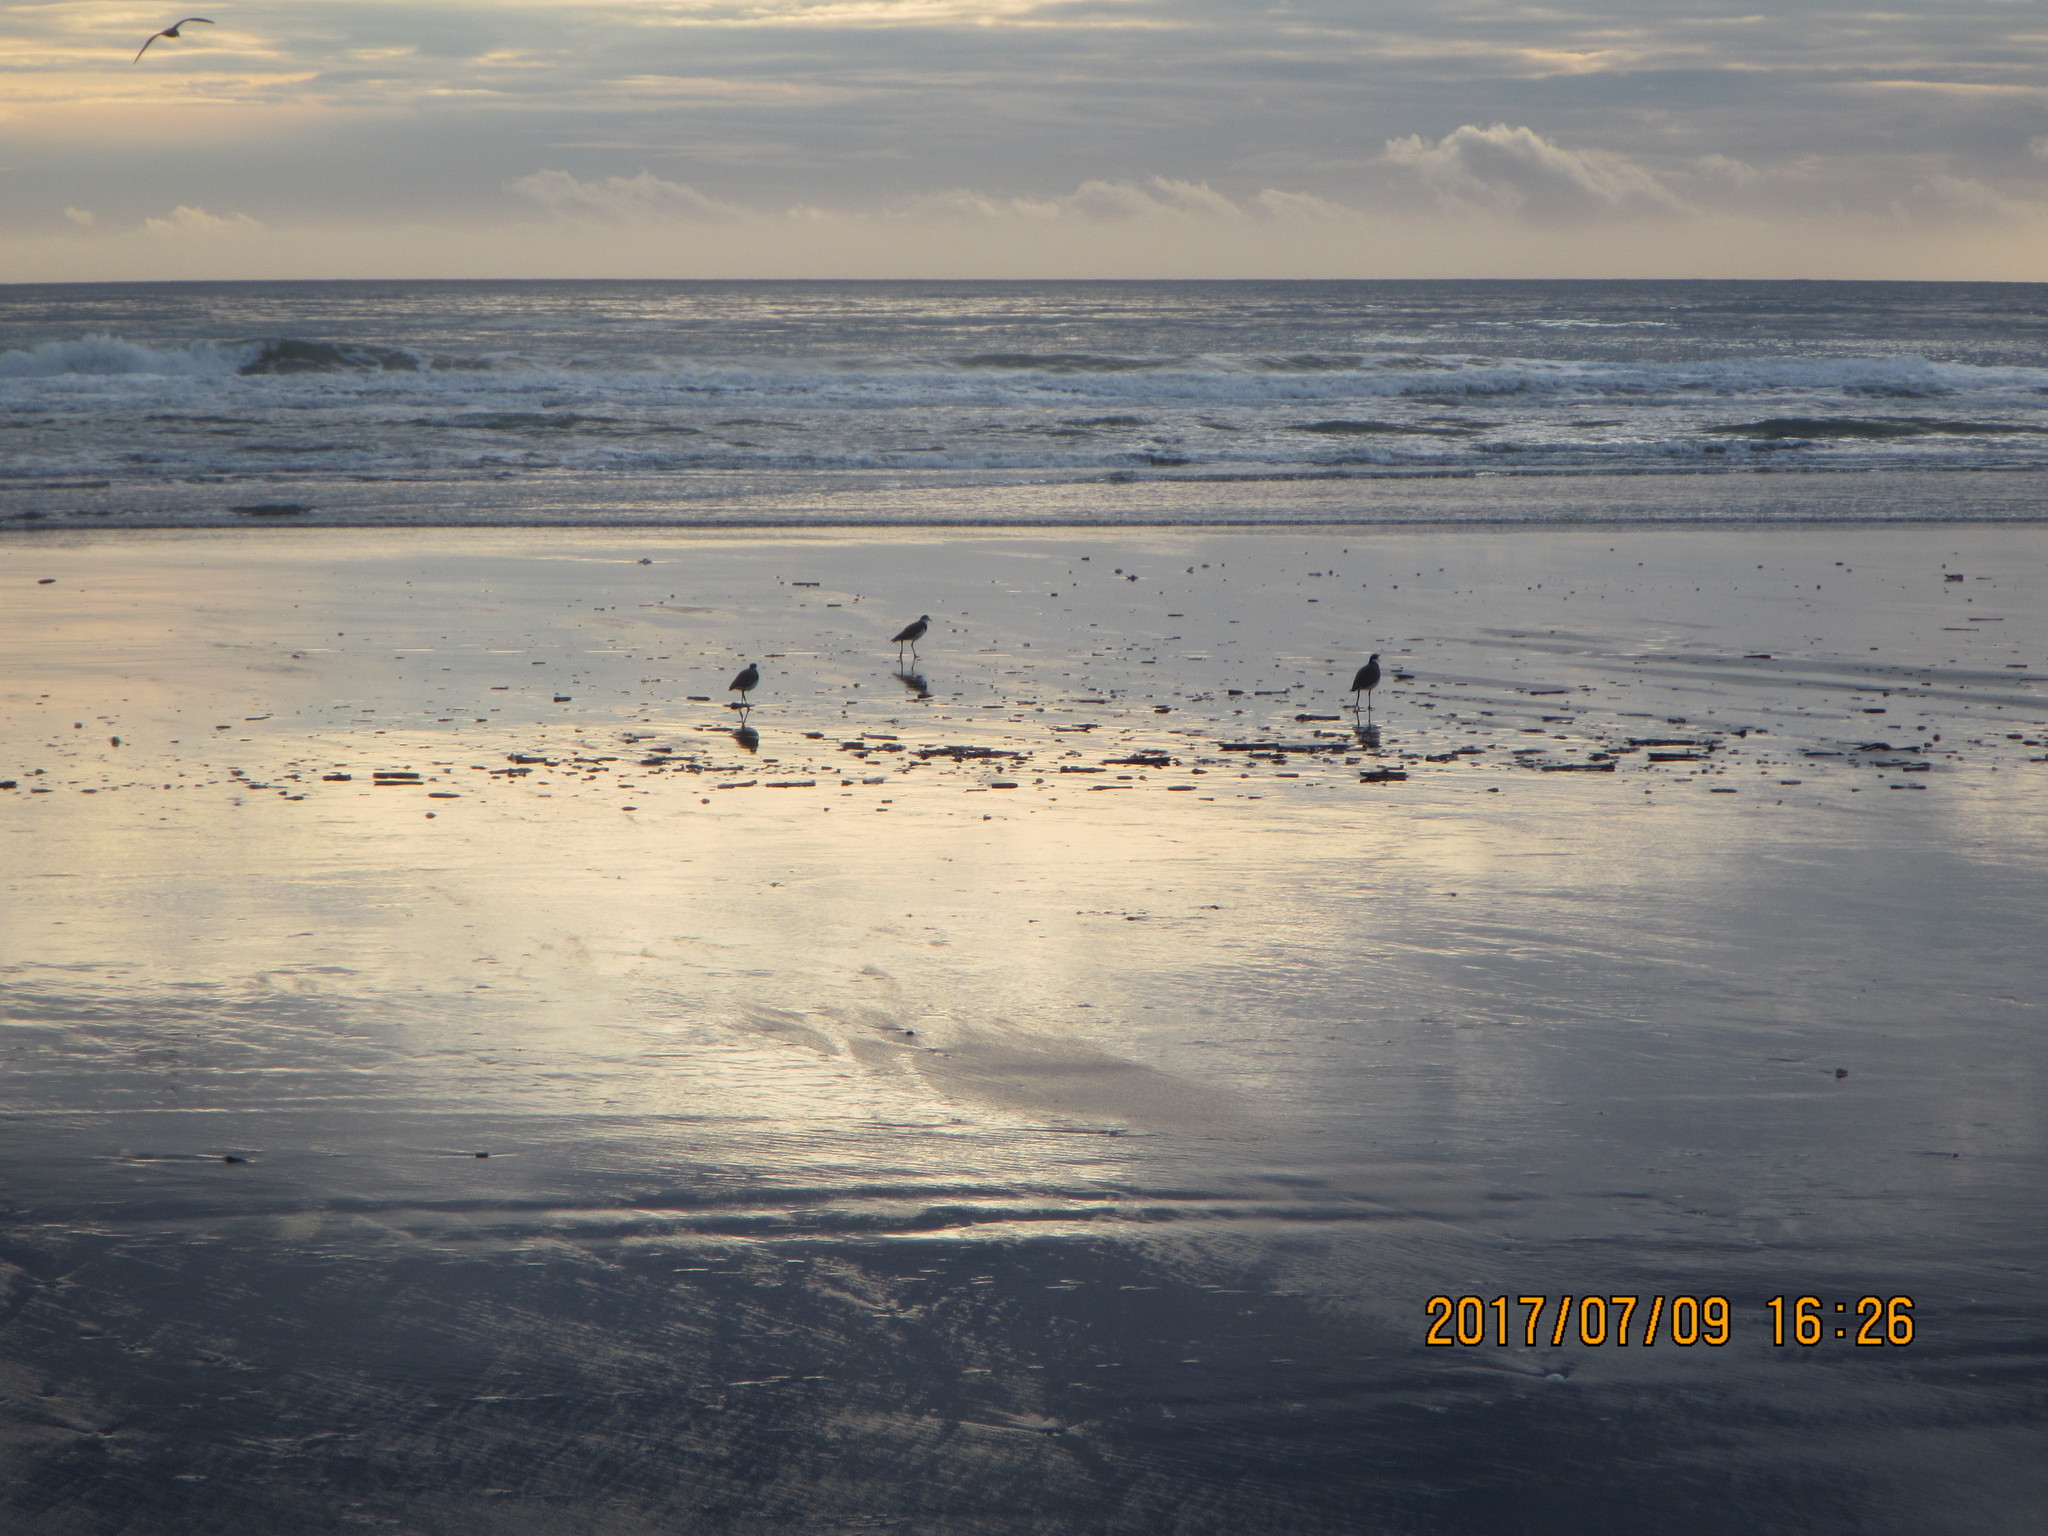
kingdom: Animalia
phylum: Chordata
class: Aves
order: Charadriiformes
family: Charadriidae
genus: Vanellus
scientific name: Vanellus miles
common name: Masked lapwing
